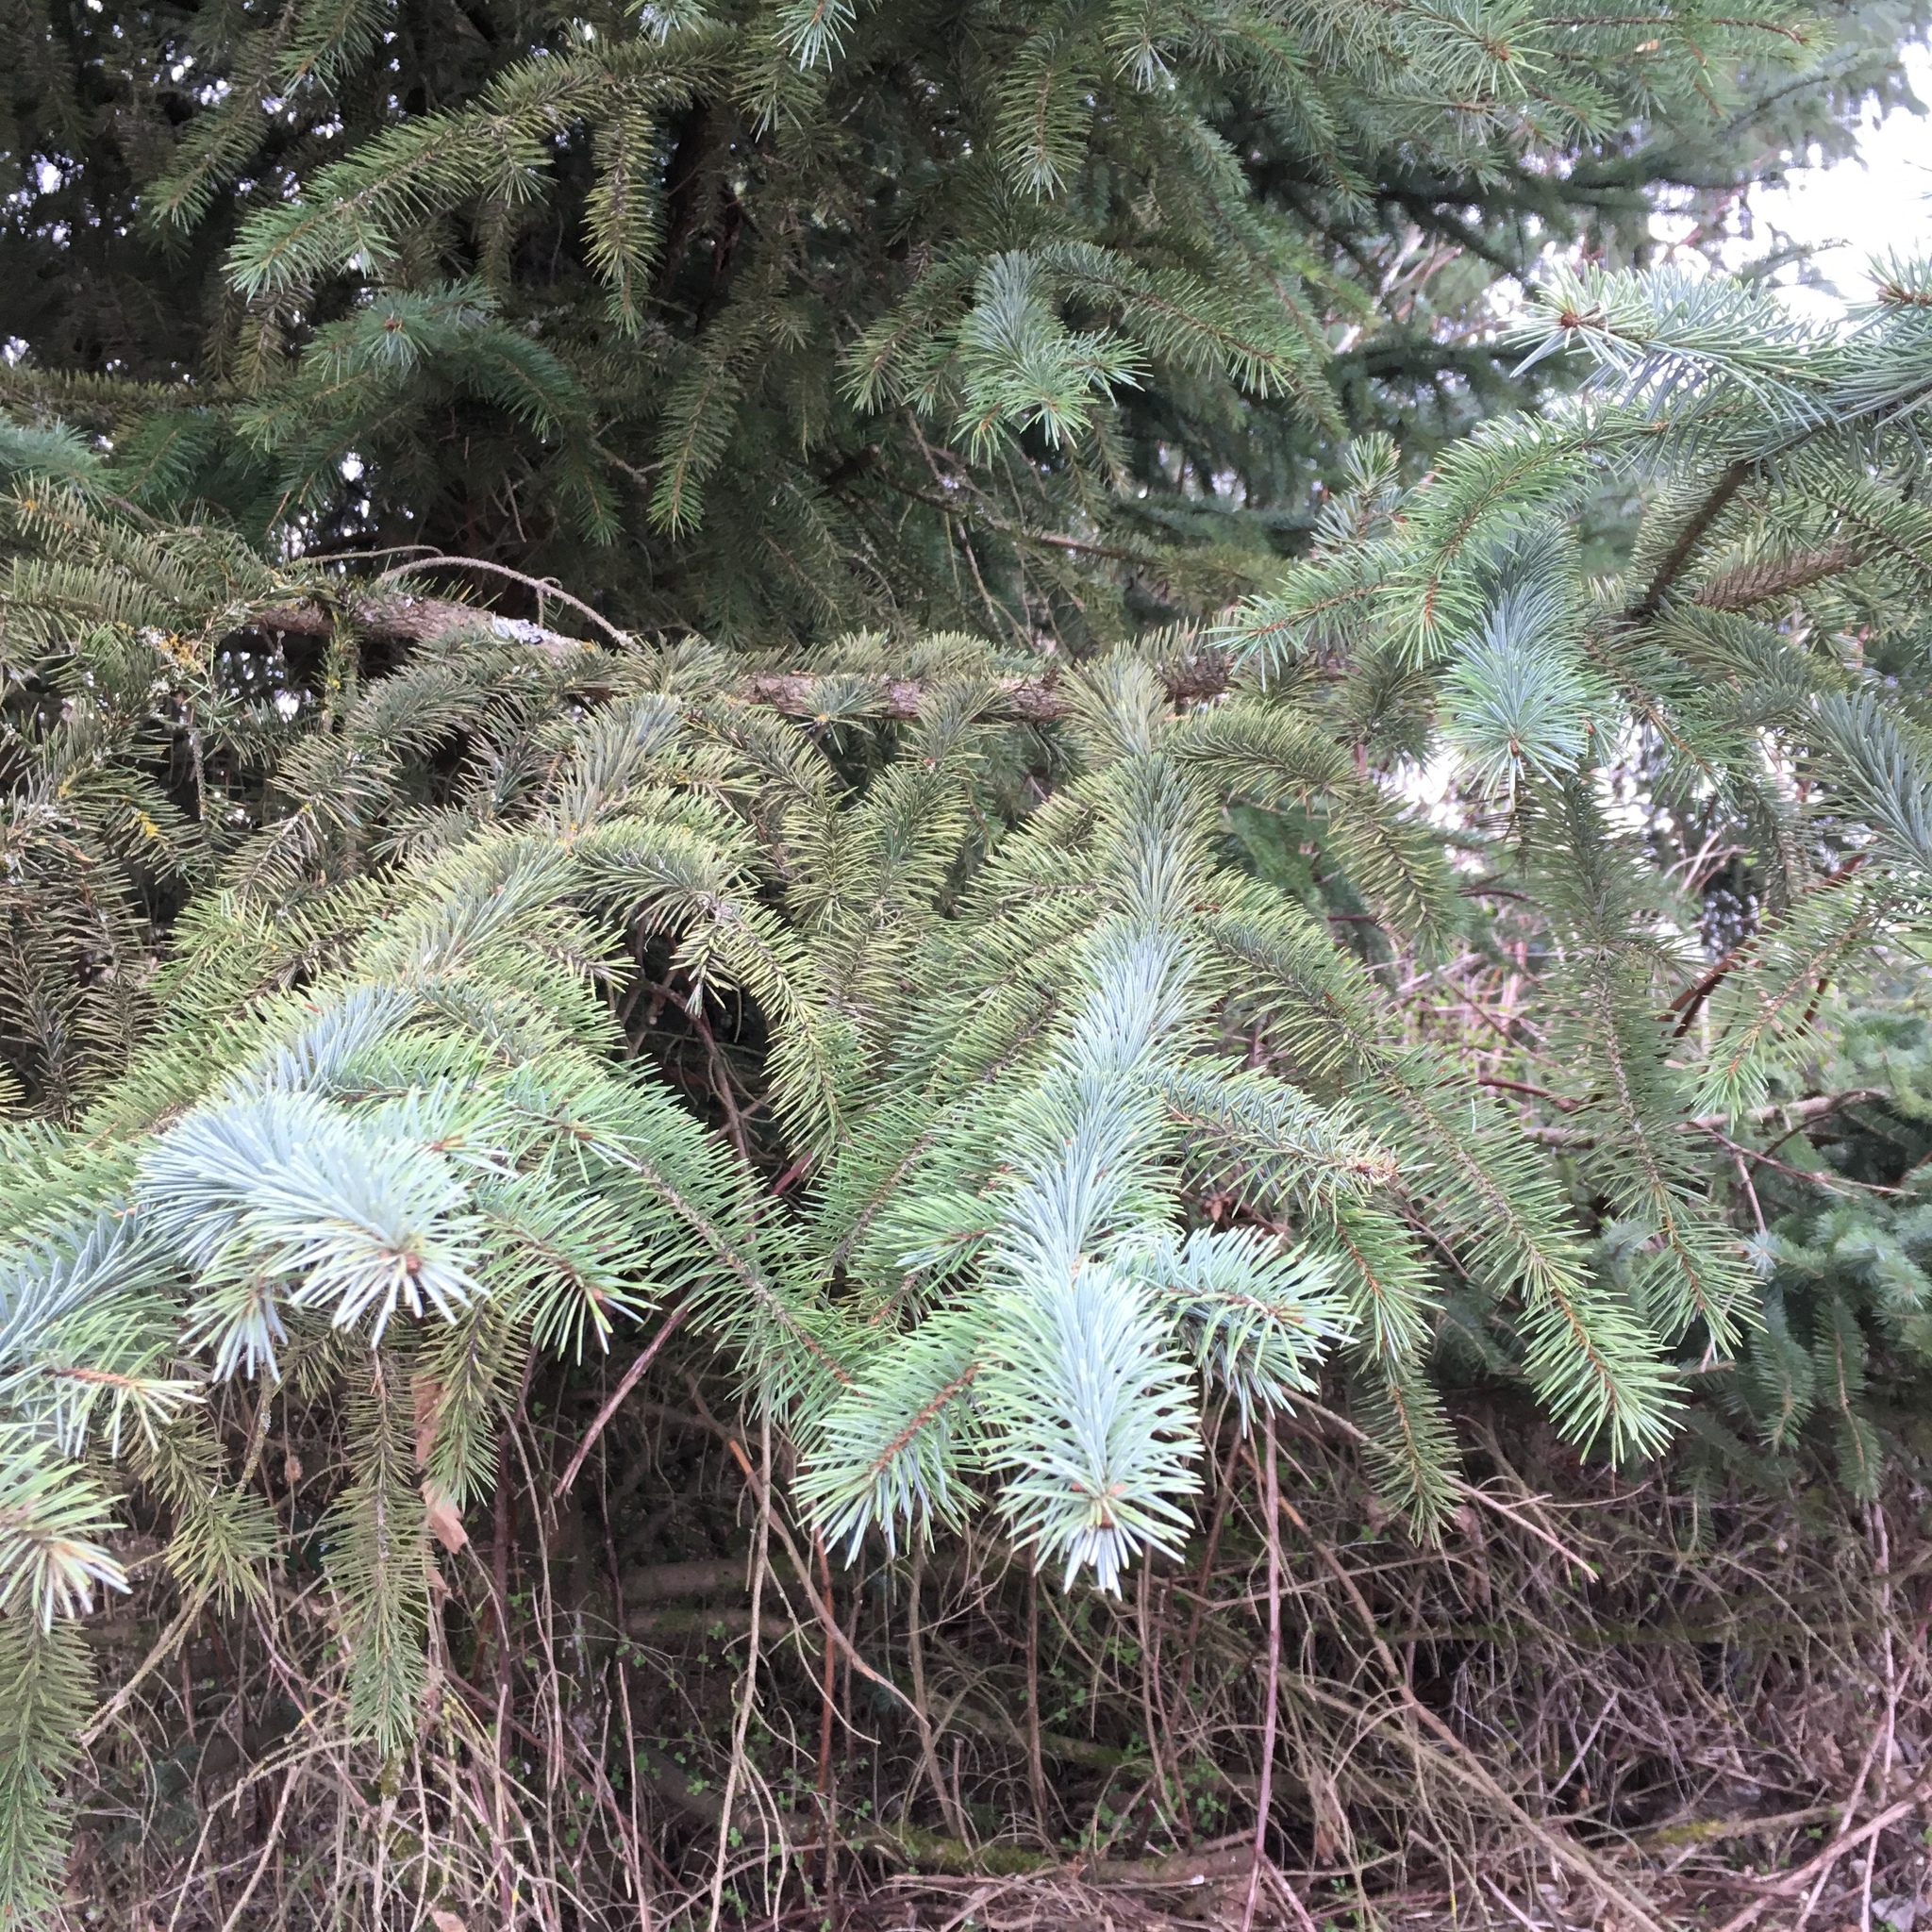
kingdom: Plantae
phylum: Tracheophyta
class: Pinopsida
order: Pinales
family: Pinaceae
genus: Picea
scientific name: Picea sitchensis
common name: Sitka spruce
